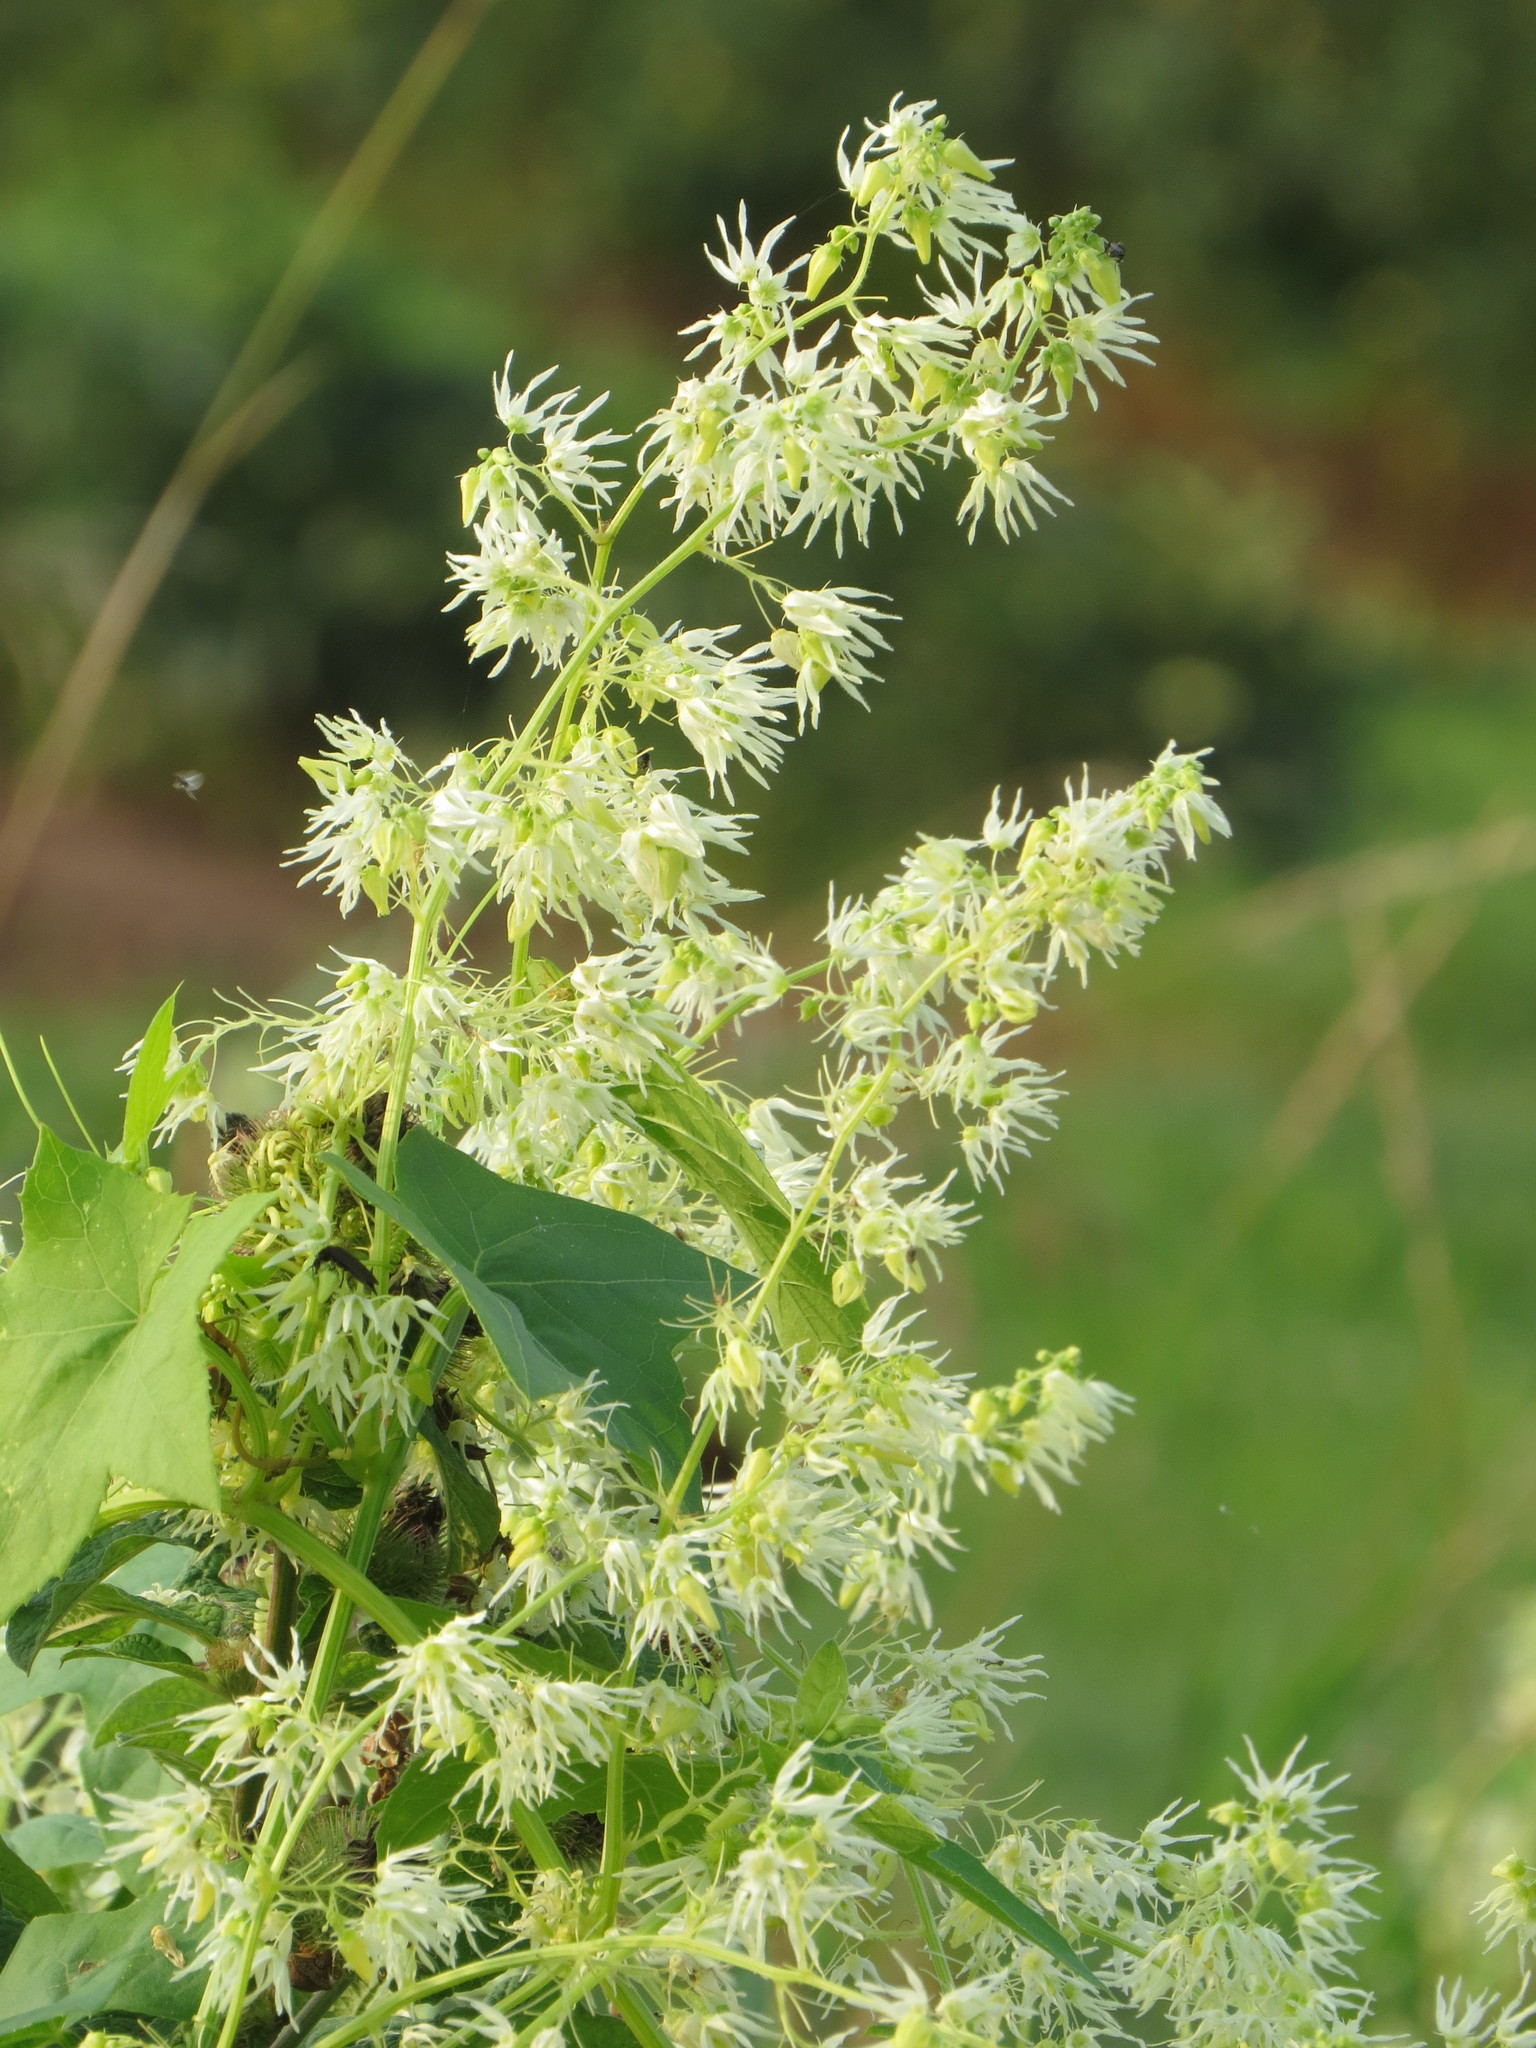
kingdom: Plantae
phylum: Tracheophyta
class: Magnoliopsida
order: Cucurbitales
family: Cucurbitaceae
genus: Echinocystis
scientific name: Echinocystis lobata
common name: Wild cucumber
